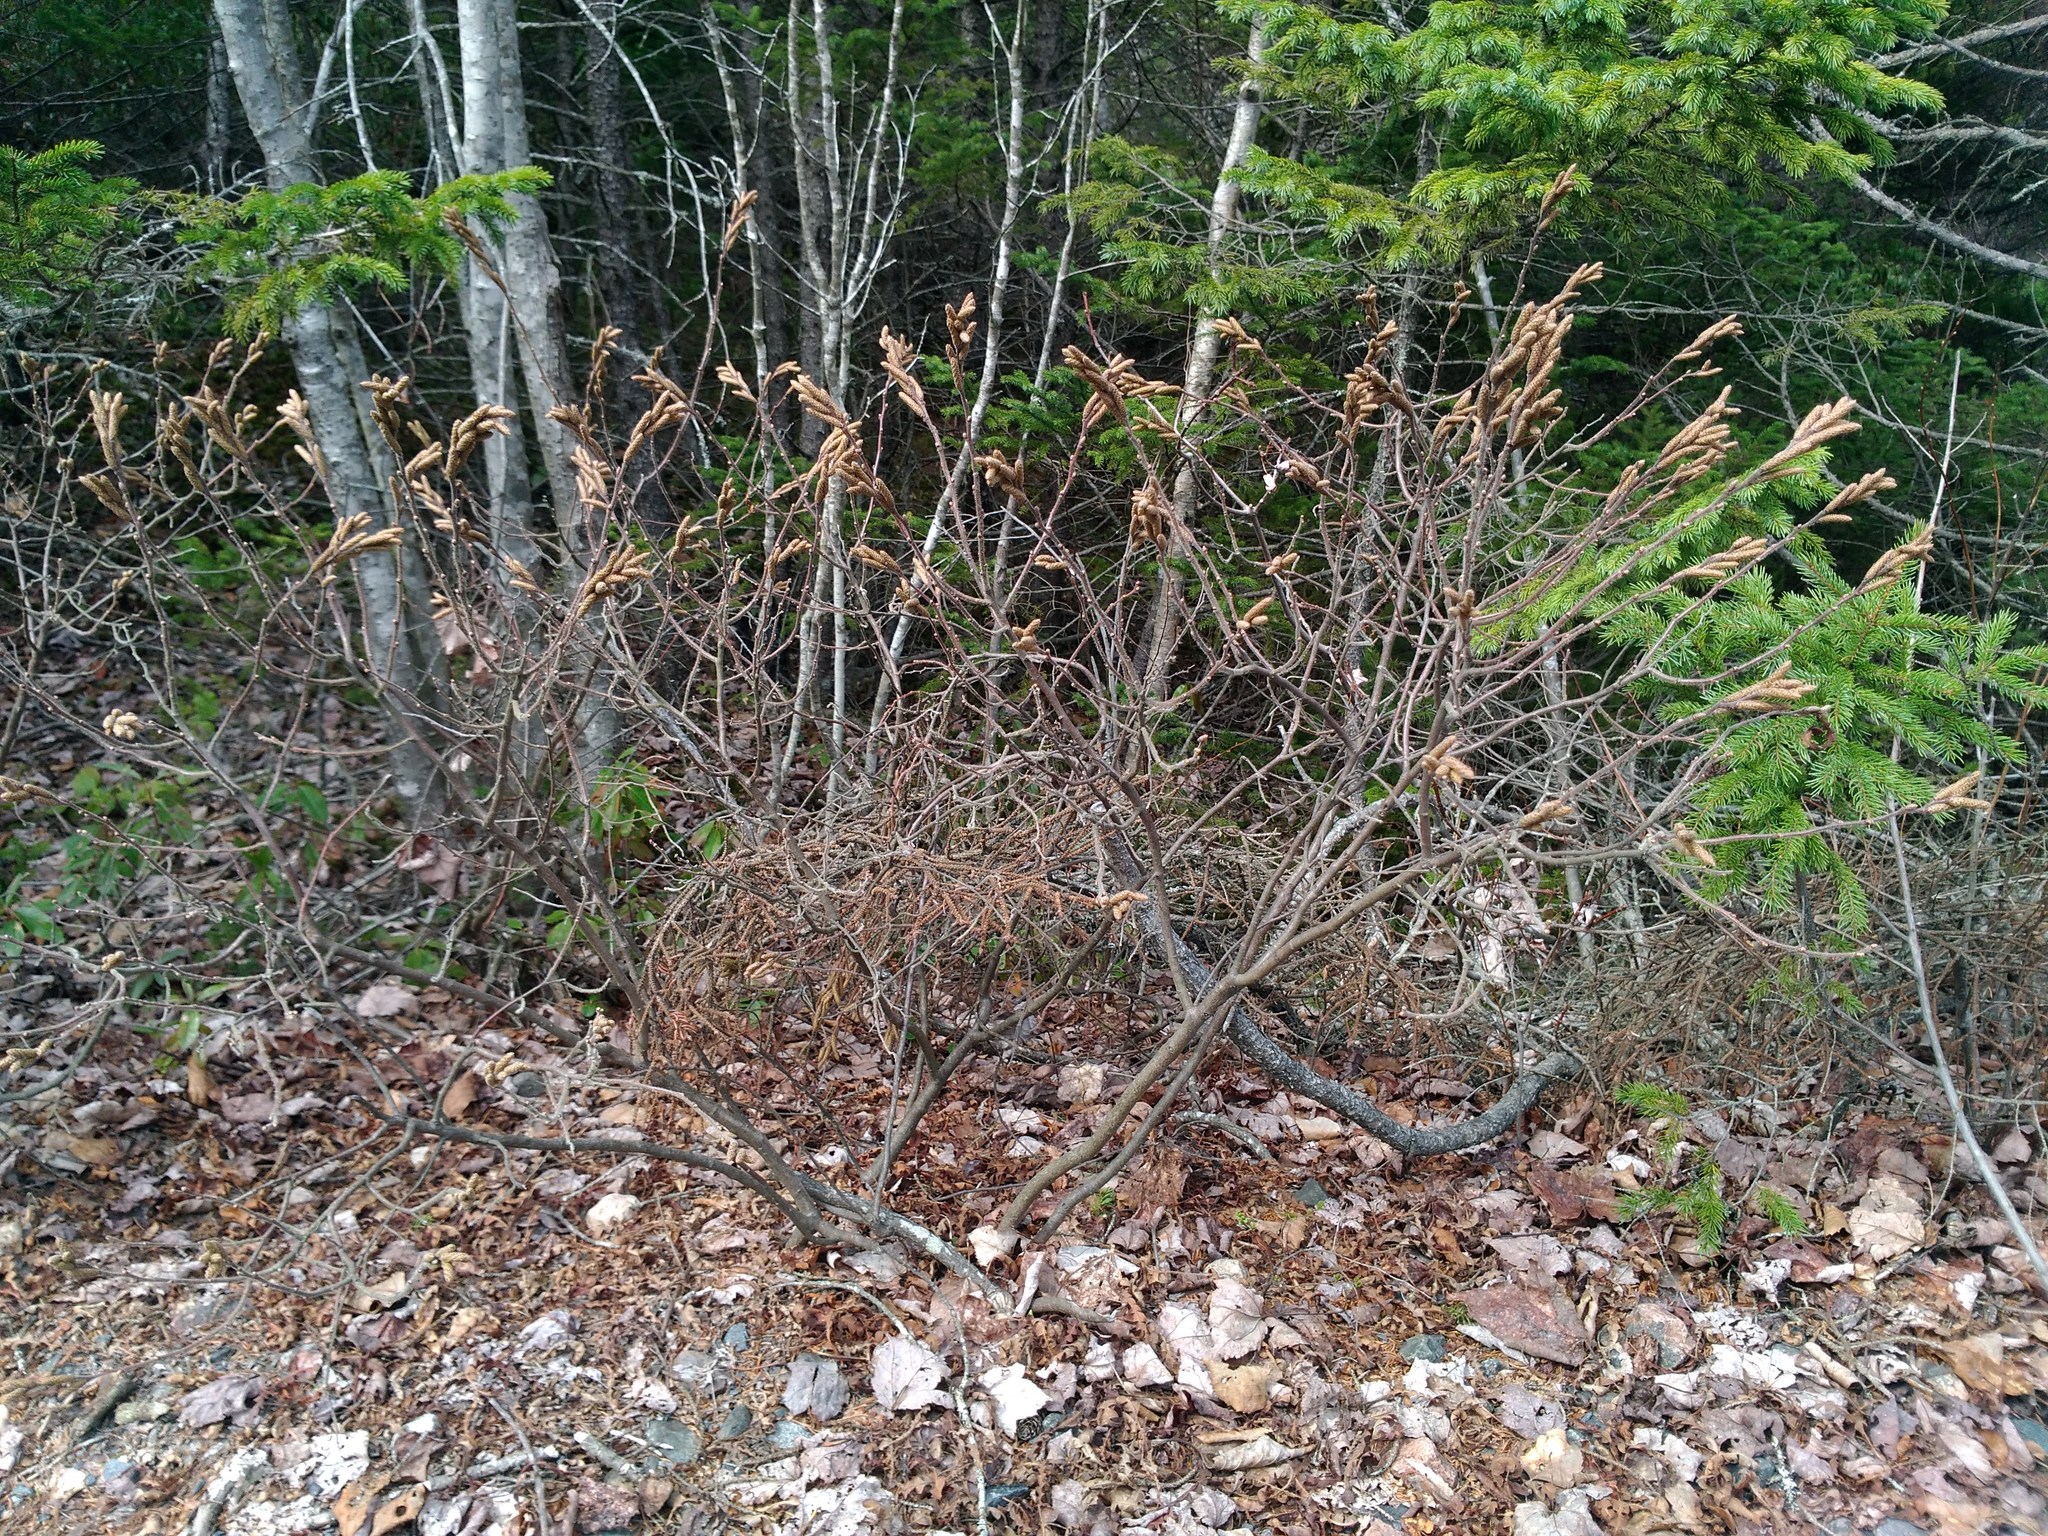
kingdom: Plantae
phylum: Tracheophyta
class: Magnoliopsida
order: Fagales
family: Myricaceae
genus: Comptonia
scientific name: Comptonia peregrina
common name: Sweet-fern
